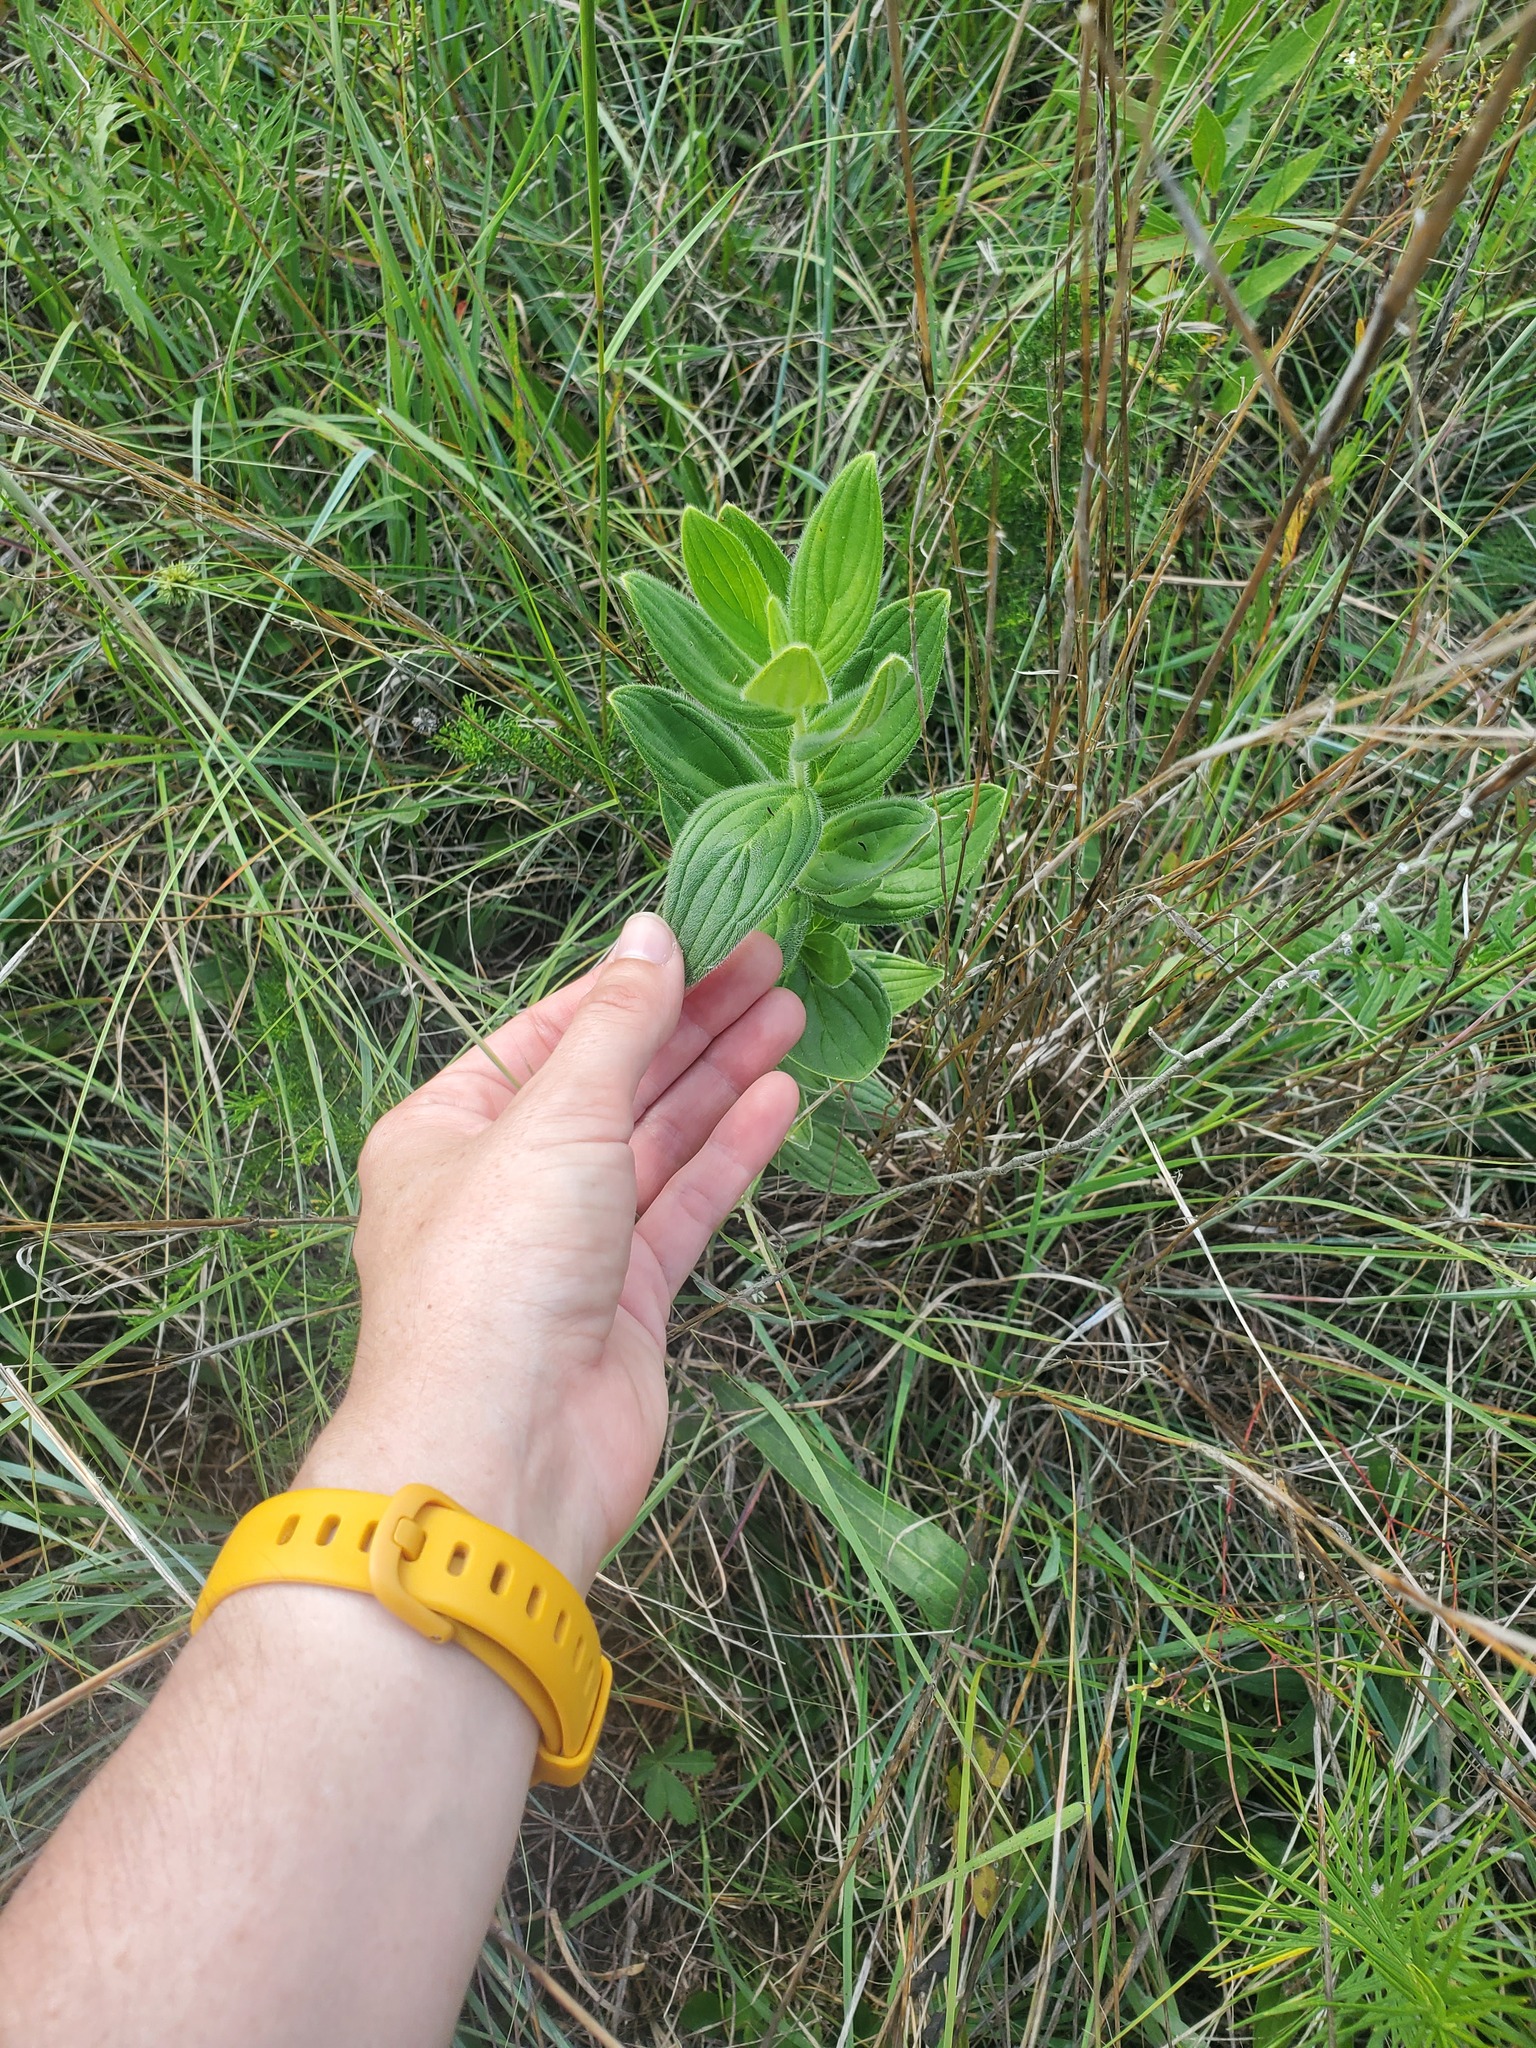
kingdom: Plantae
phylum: Tracheophyta
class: Magnoliopsida
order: Boraginales
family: Boraginaceae
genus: Lithospermum
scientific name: Lithospermum parviflorum
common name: Hairy false gromwell
